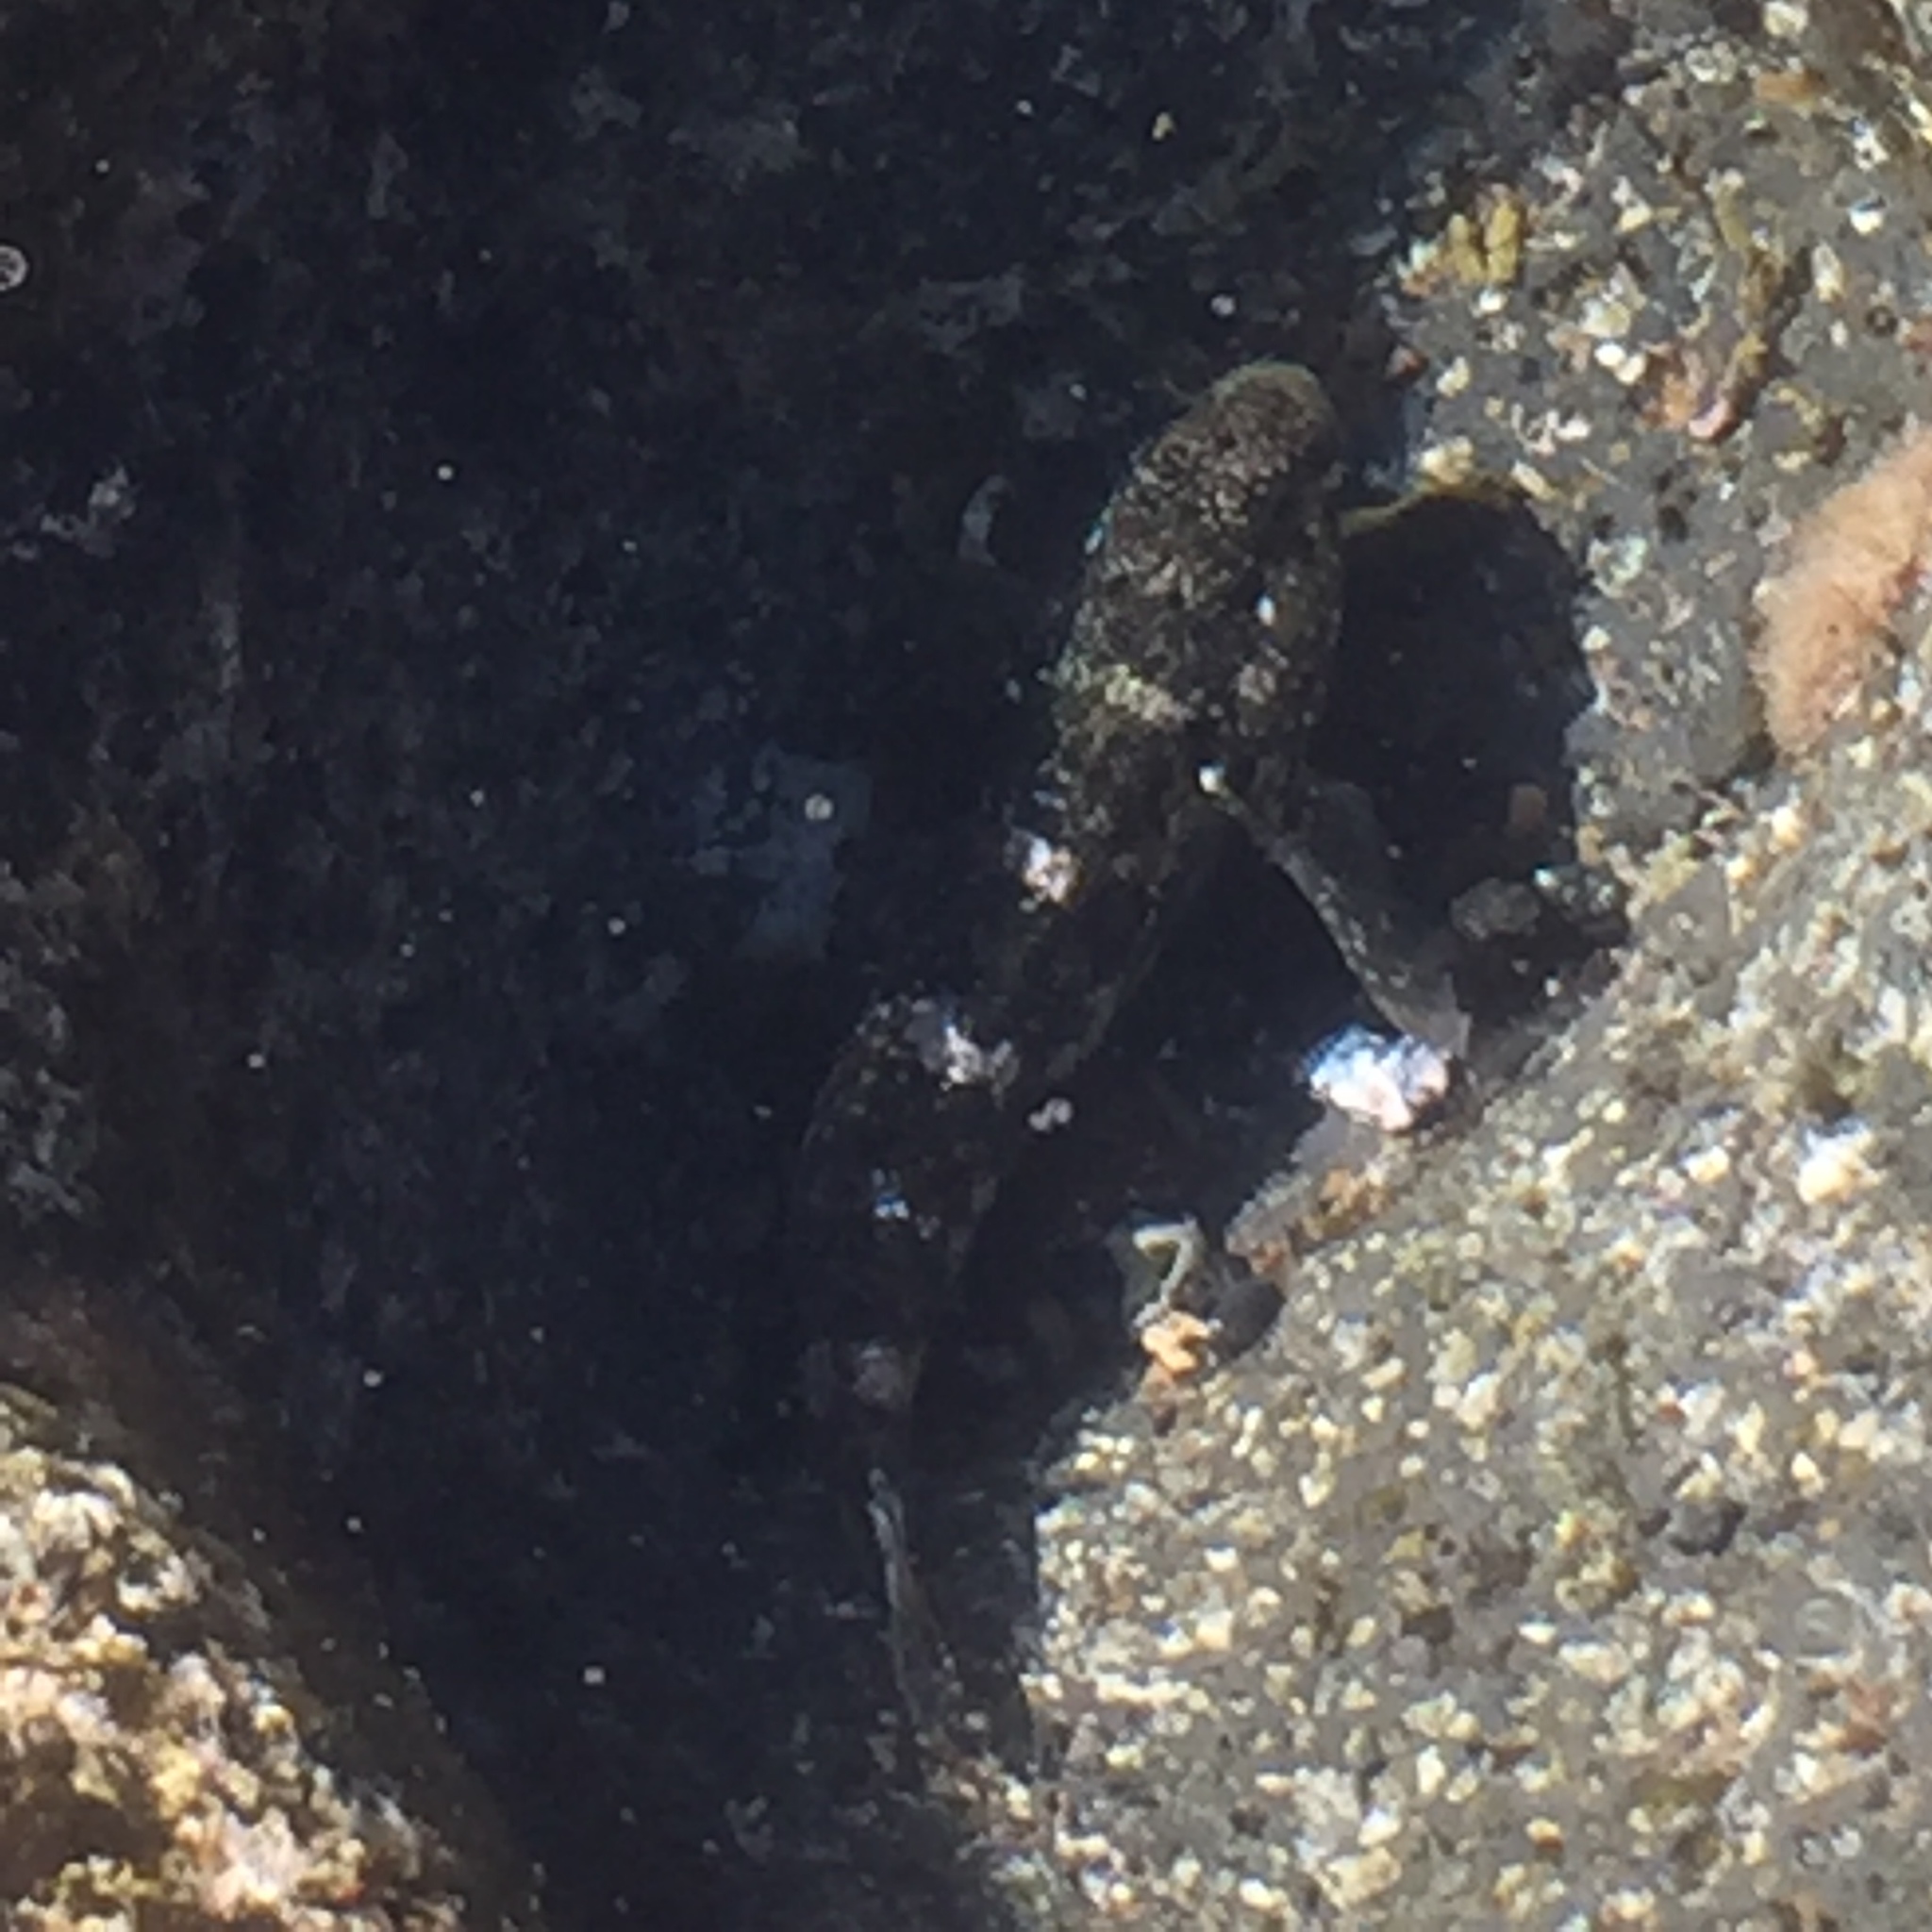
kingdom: Animalia
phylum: Chordata
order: Perciformes
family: Gobiidae
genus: Mauligobius
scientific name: Mauligobius maderensis
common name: Rock goby
